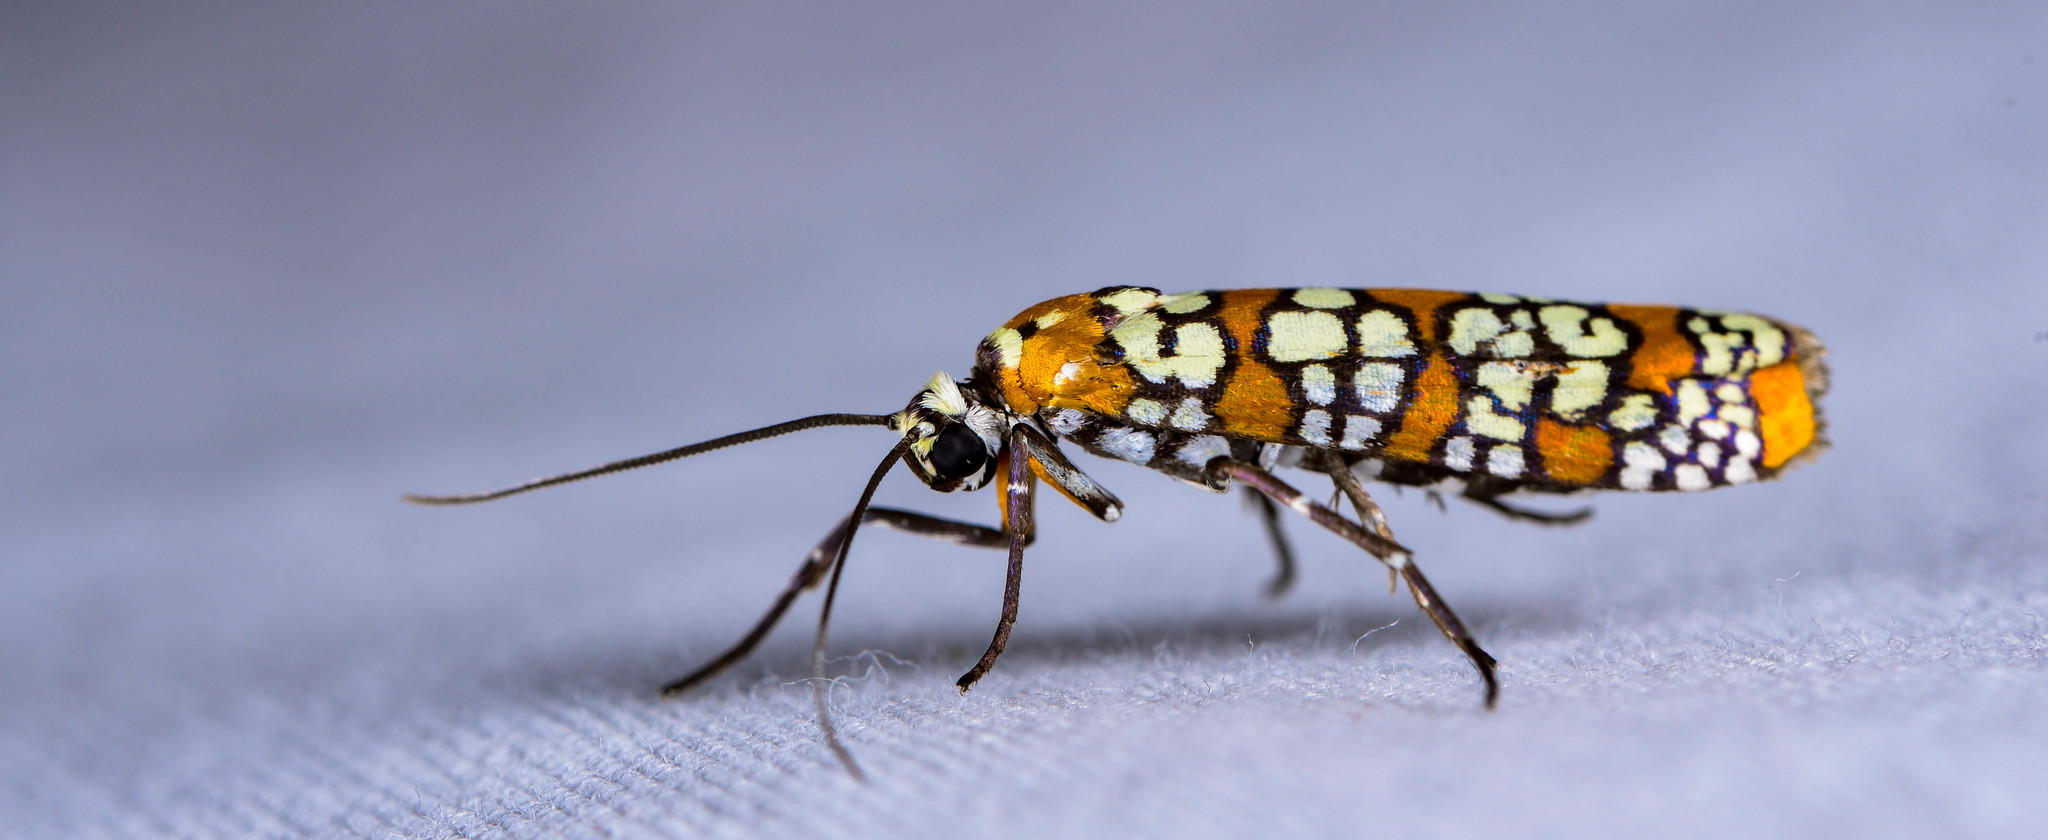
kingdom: Animalia
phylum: Arthropoda
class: Insecta
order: Lepidoptera
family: Attevidae
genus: Atteva
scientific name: Atteva punctella
